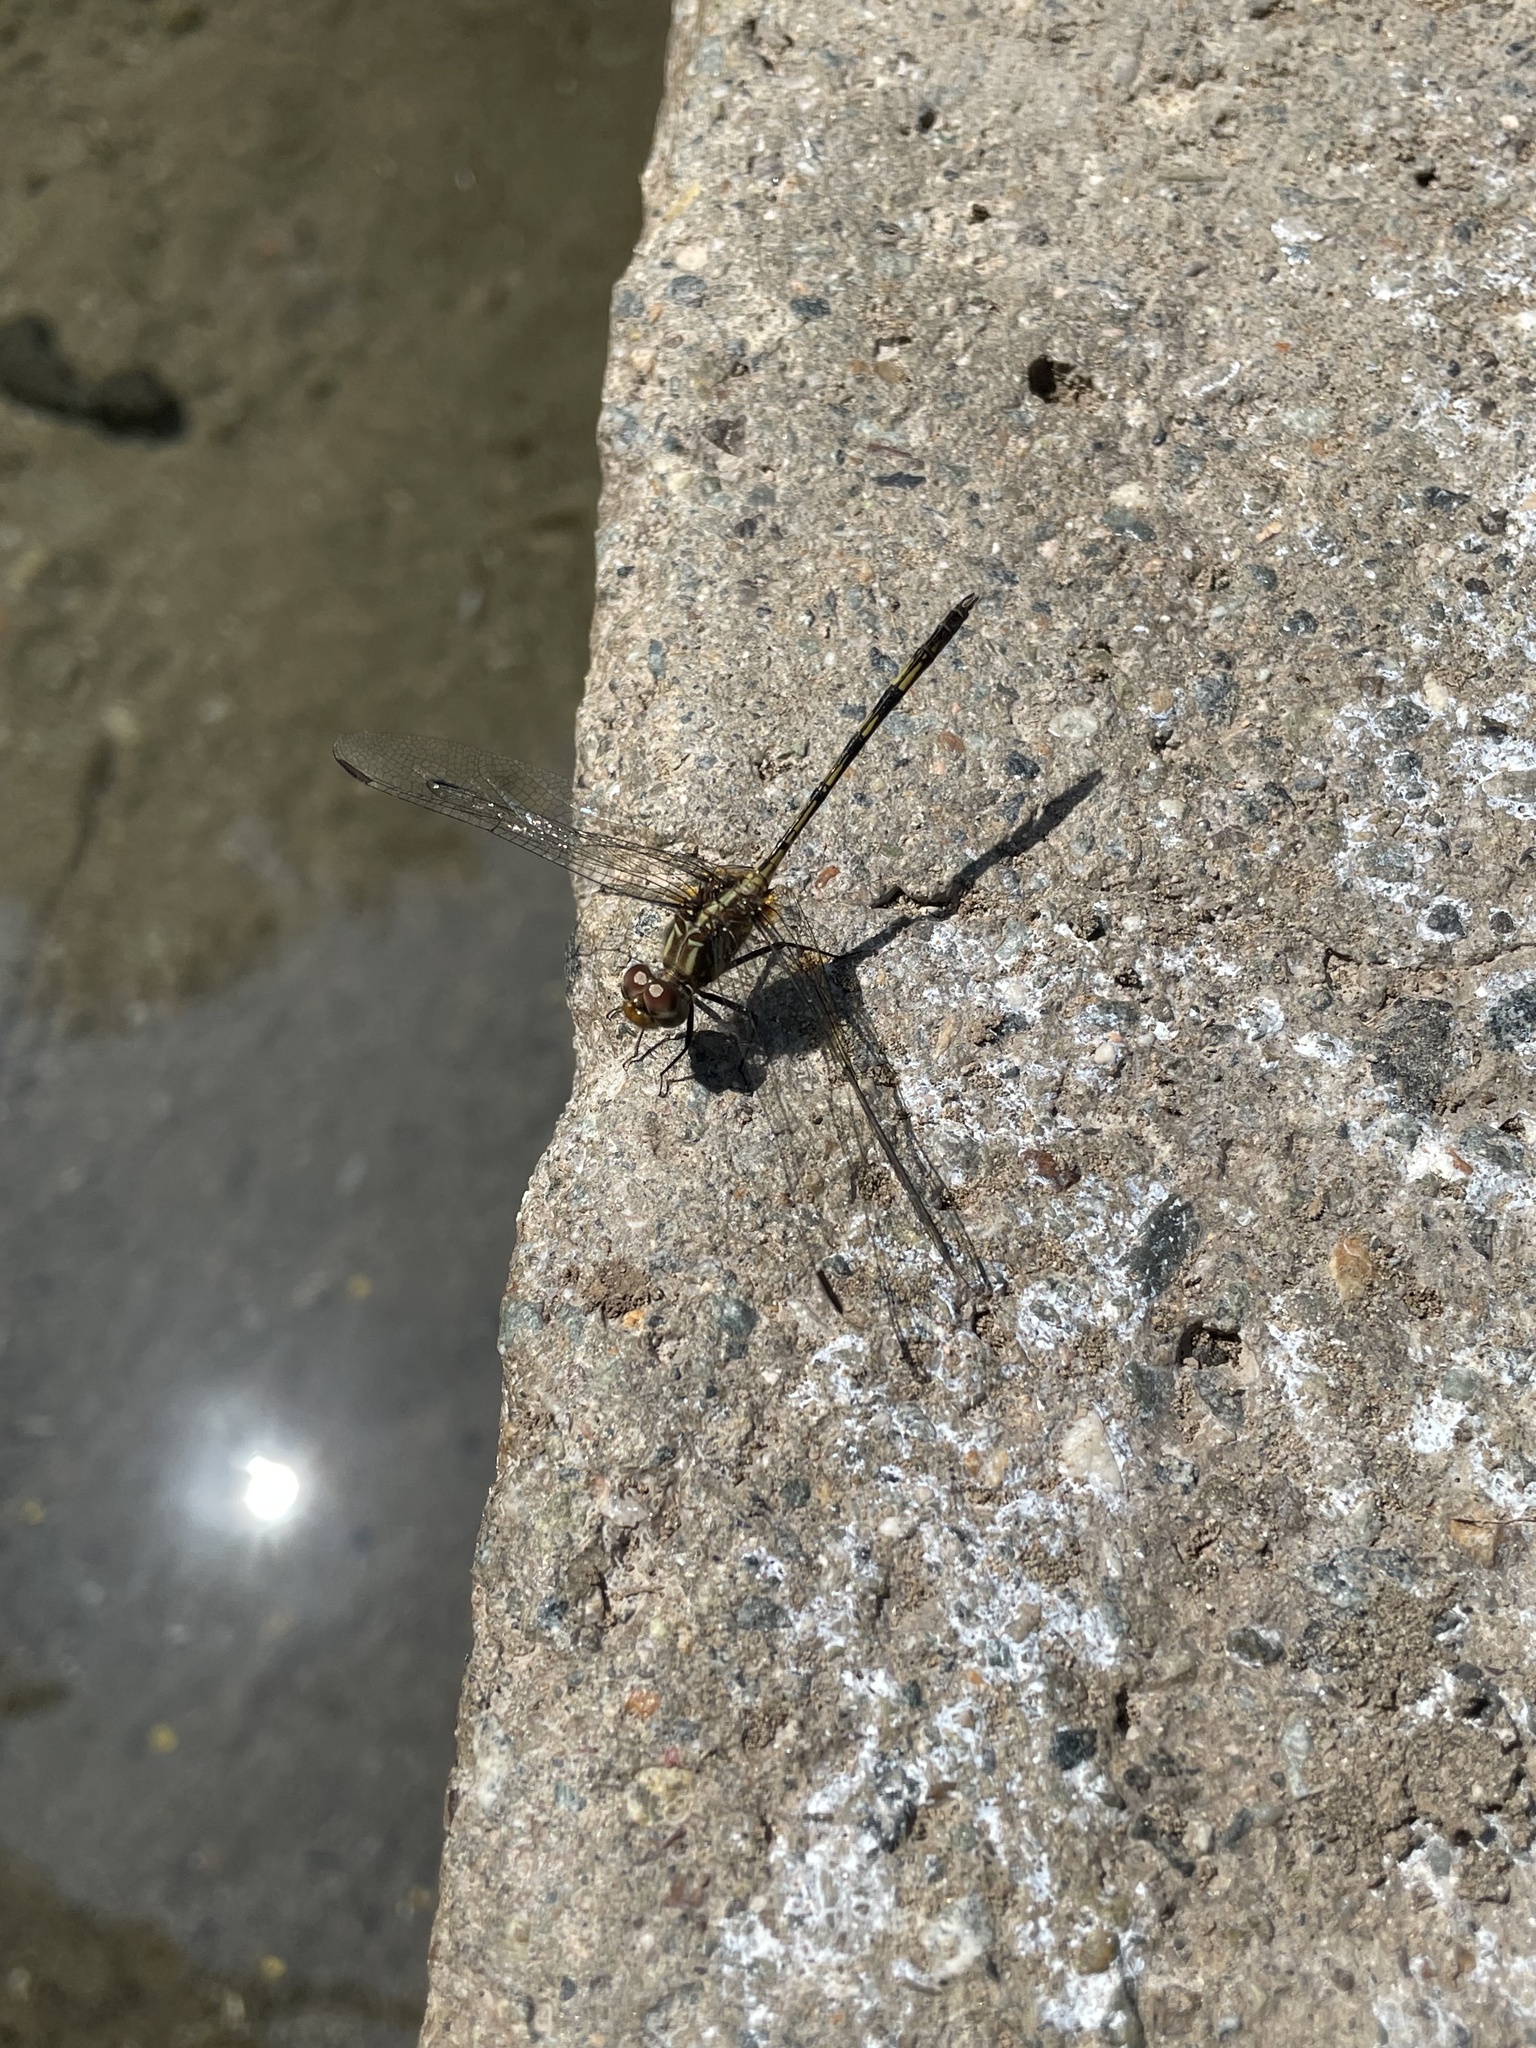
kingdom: Animalia
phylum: Arthropoda
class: Insecta
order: Odonata
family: Libellulidae
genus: Dythemis
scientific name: Dythemis sterilis
